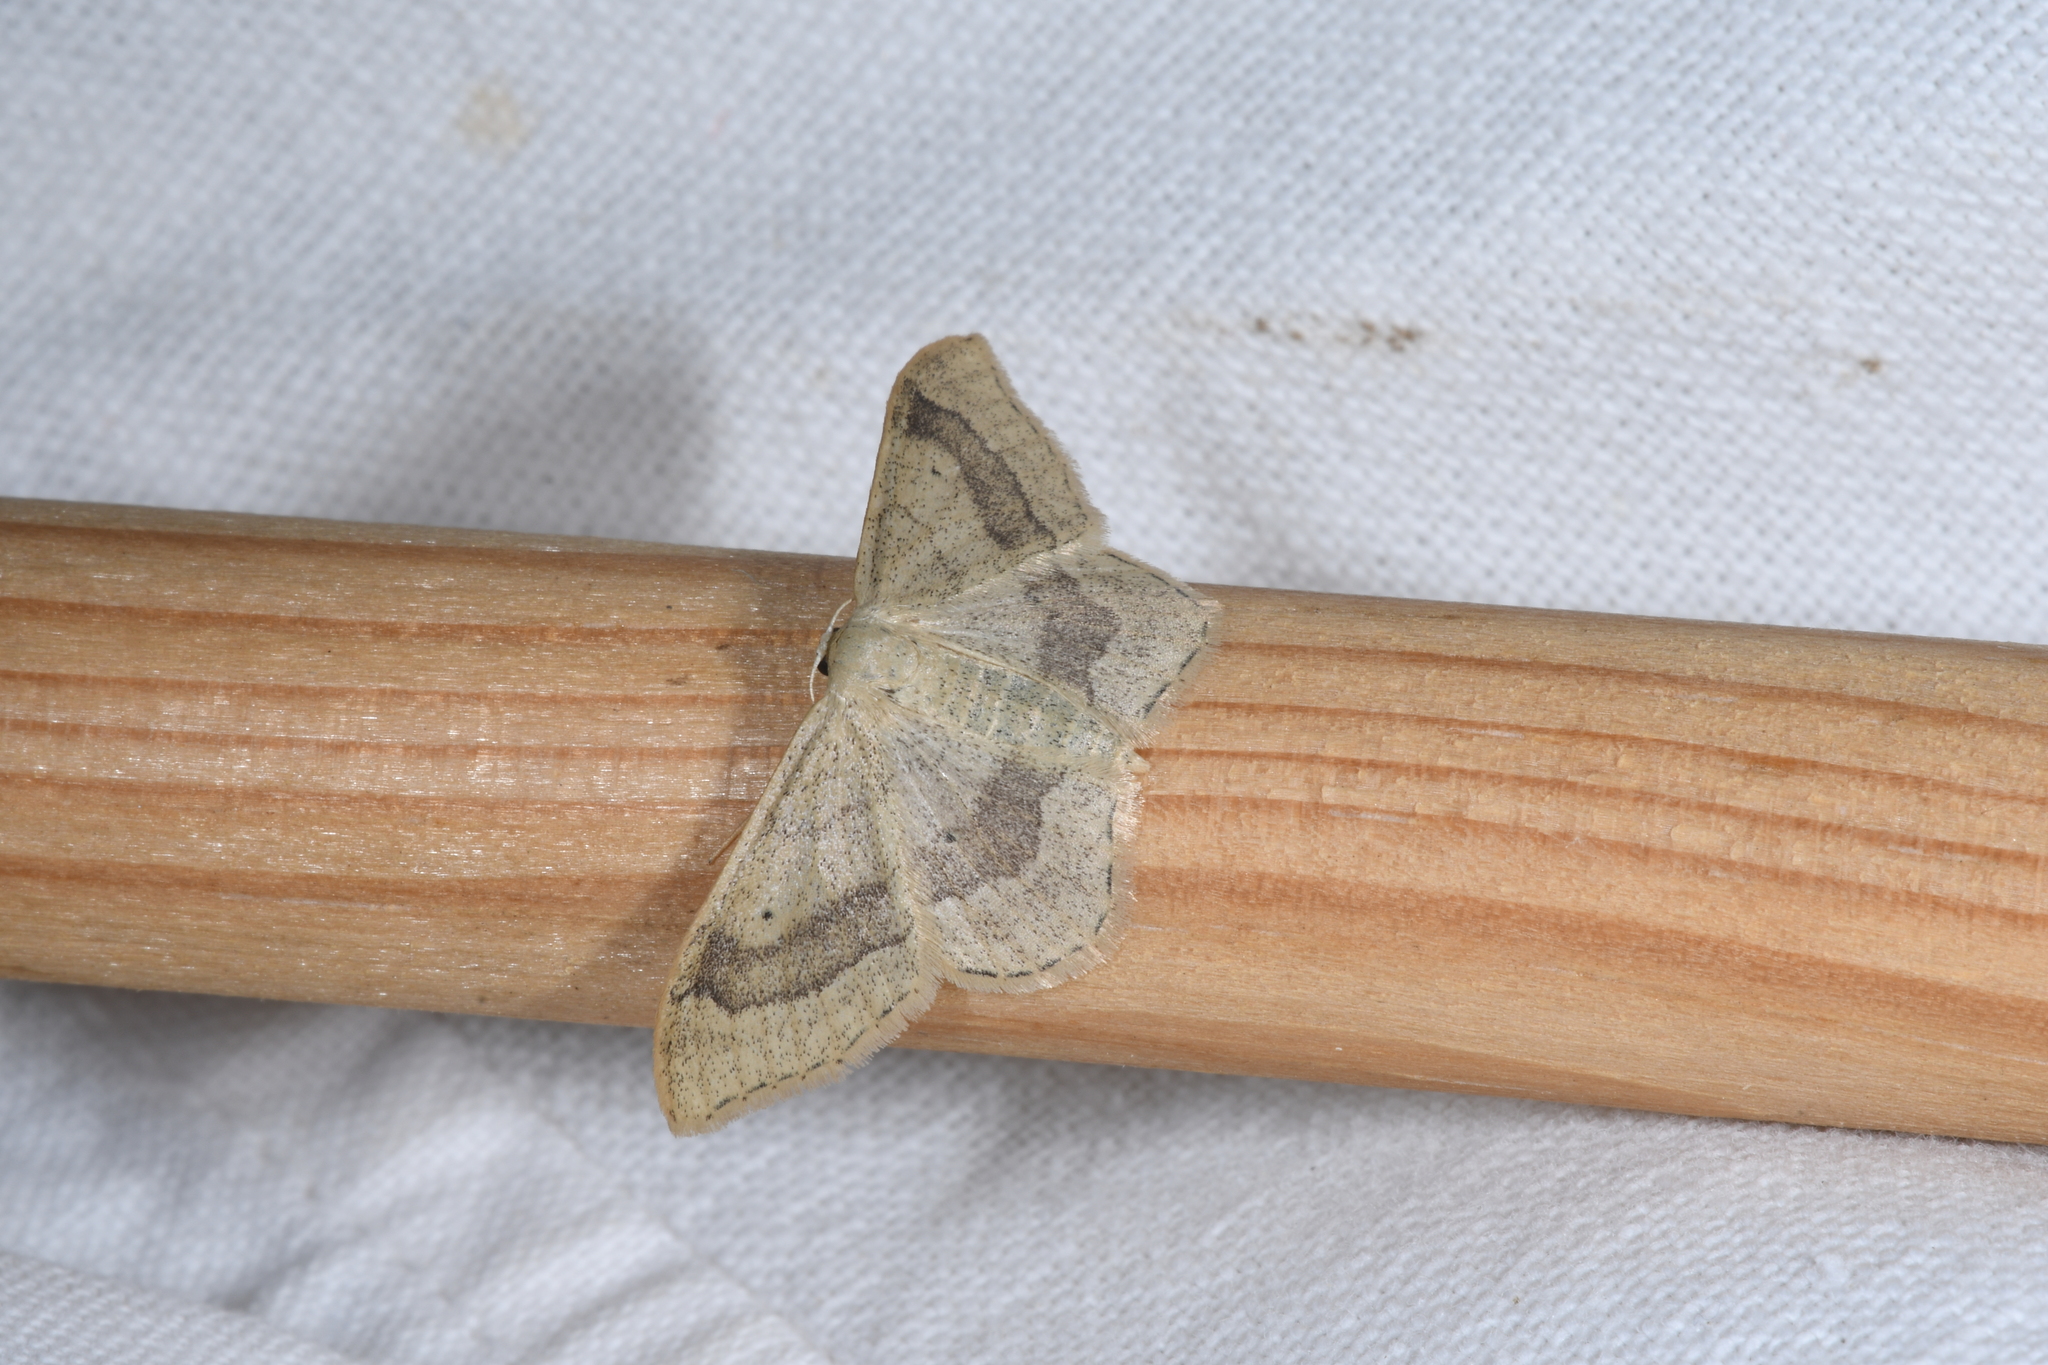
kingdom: Animalia
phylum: Arthropoda
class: Insecta
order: Lepidoptera
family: Geometridae
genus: Idaea
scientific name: Idaea aversata
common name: Riband wave
